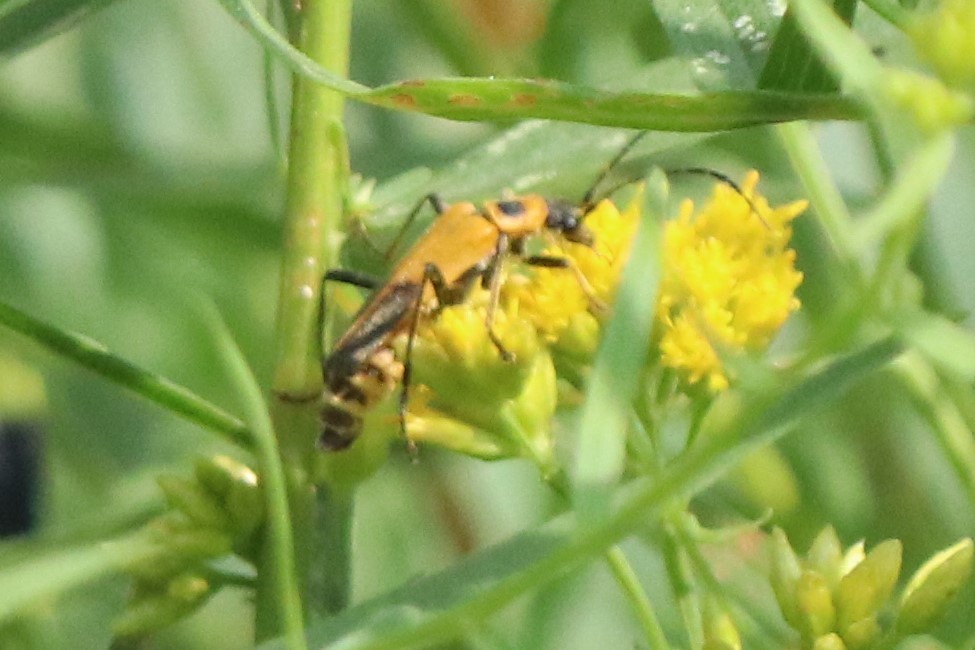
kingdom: Animalia
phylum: Arthropoda
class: Insecta
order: Coleoptera
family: Cantharidae
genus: Chauliognathus
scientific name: Chauliognathus pensylvanicus
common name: Goldenrod soldier beetle
